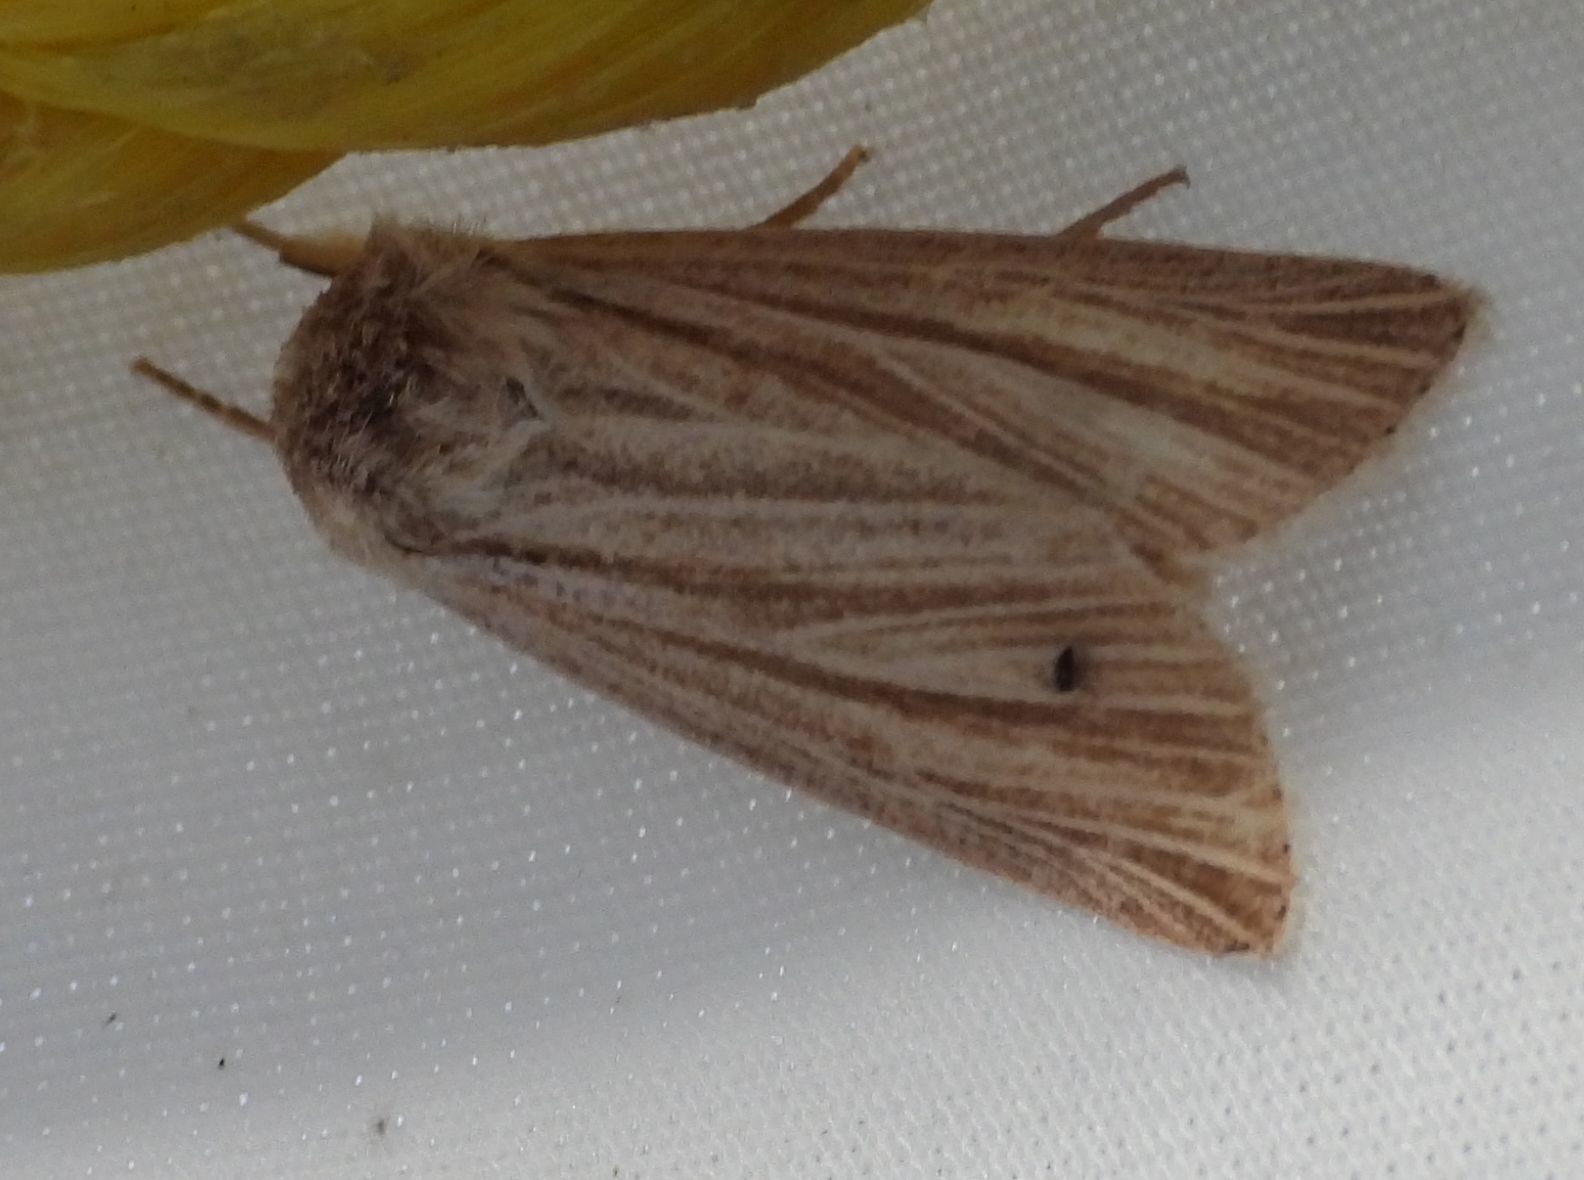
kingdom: Animalia
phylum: Arthropoda
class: Insecta
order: Lepidoptera
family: Noctuidae
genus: Acronicta
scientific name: Acronicta insularis
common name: Henry's marsh moth
